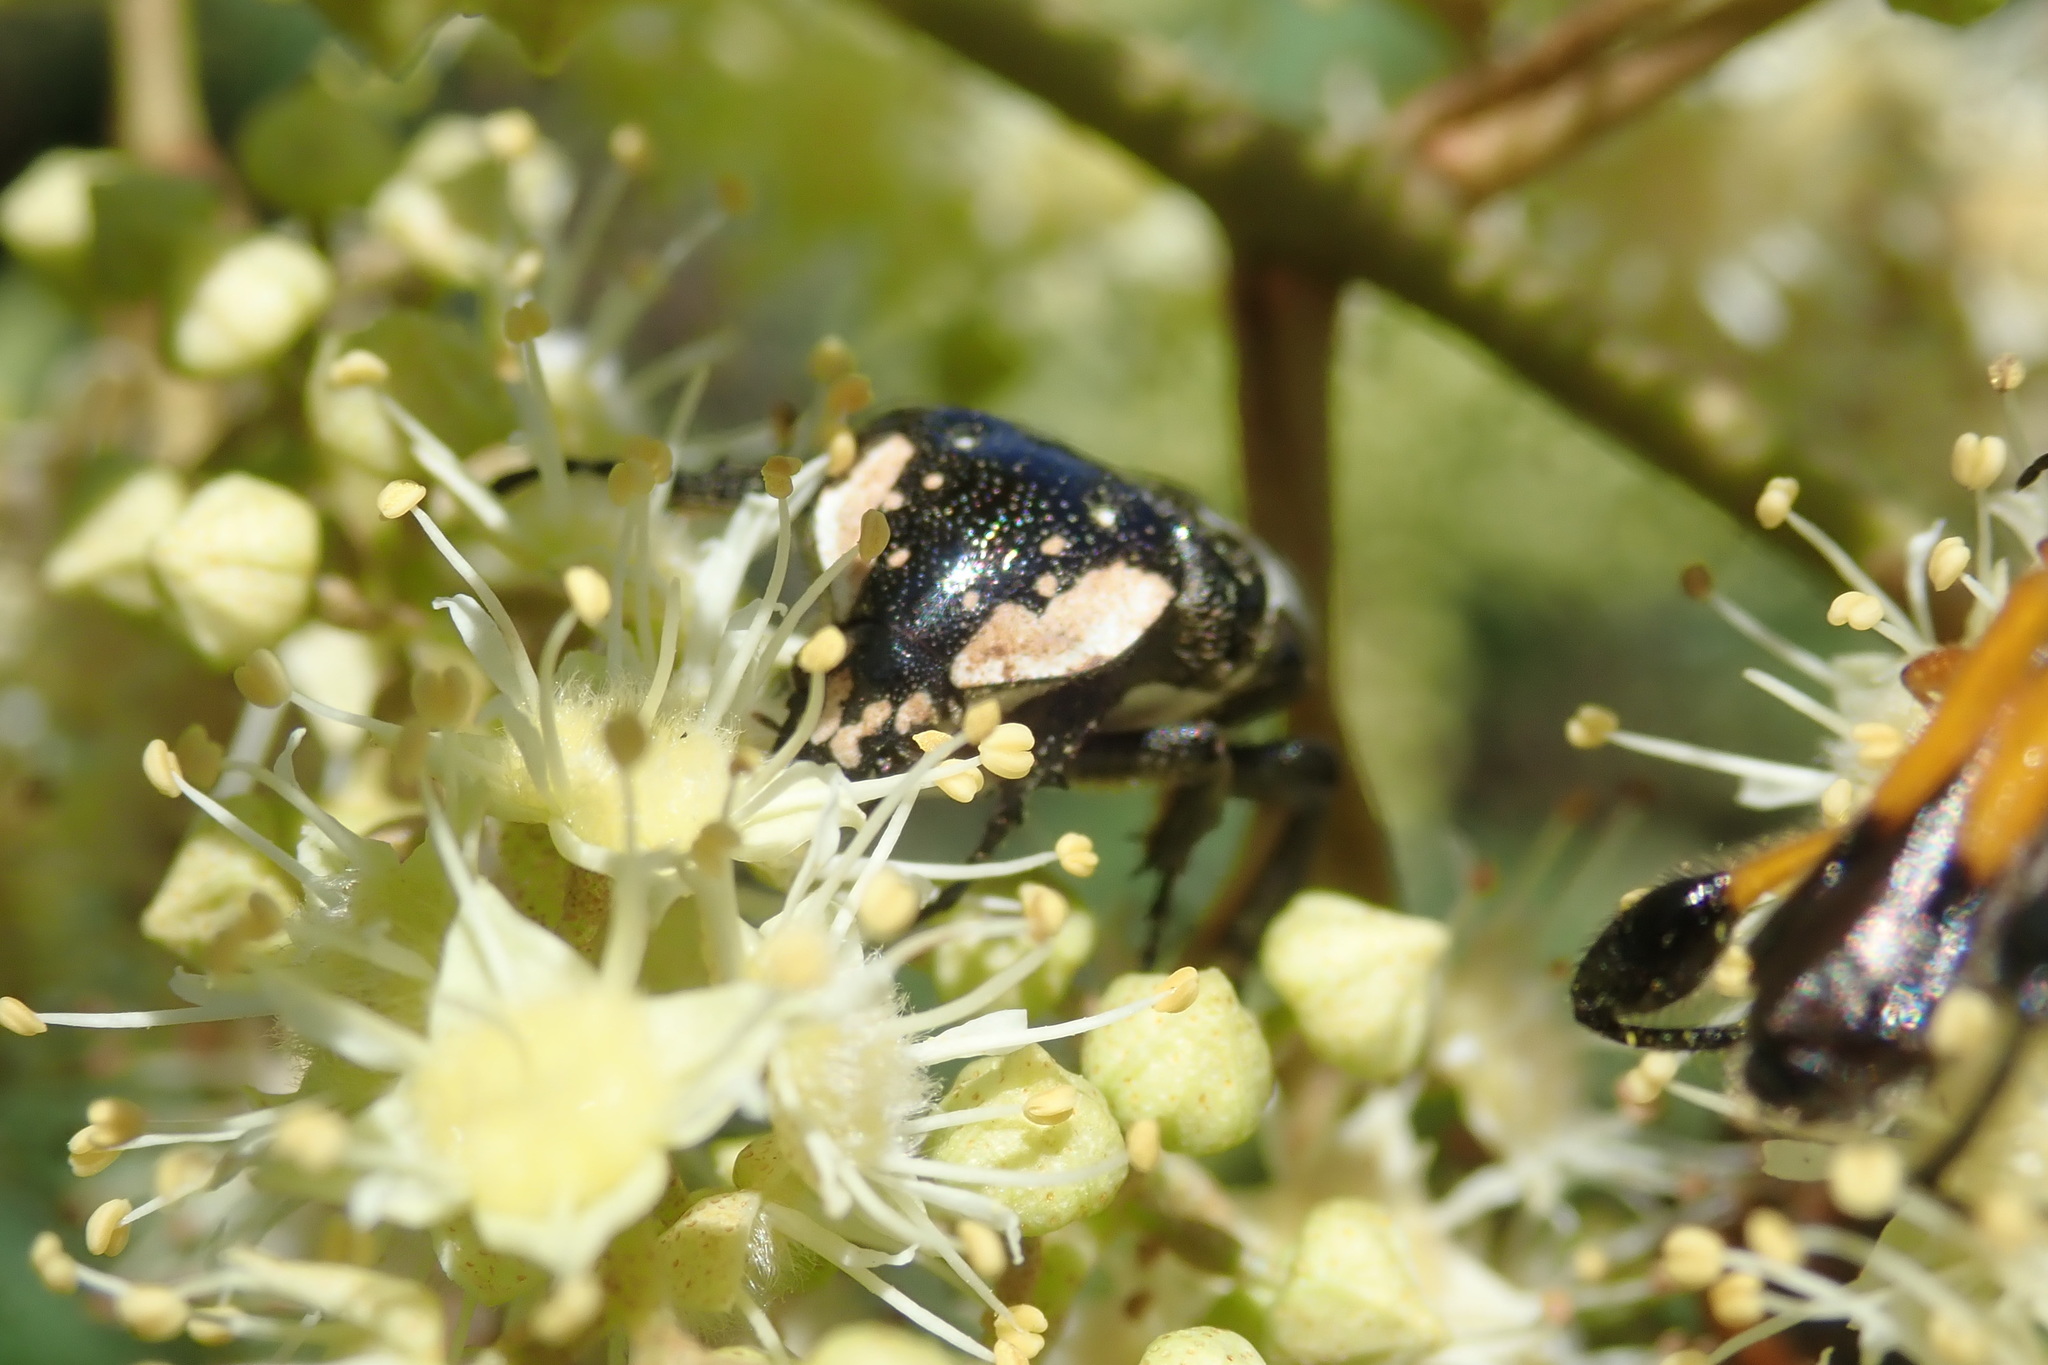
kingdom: Animalia
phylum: Arthropoda
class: Insecta
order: Coleoptera
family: Scarabaeidae
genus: Polystalactica
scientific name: Polystalactica perroudi
